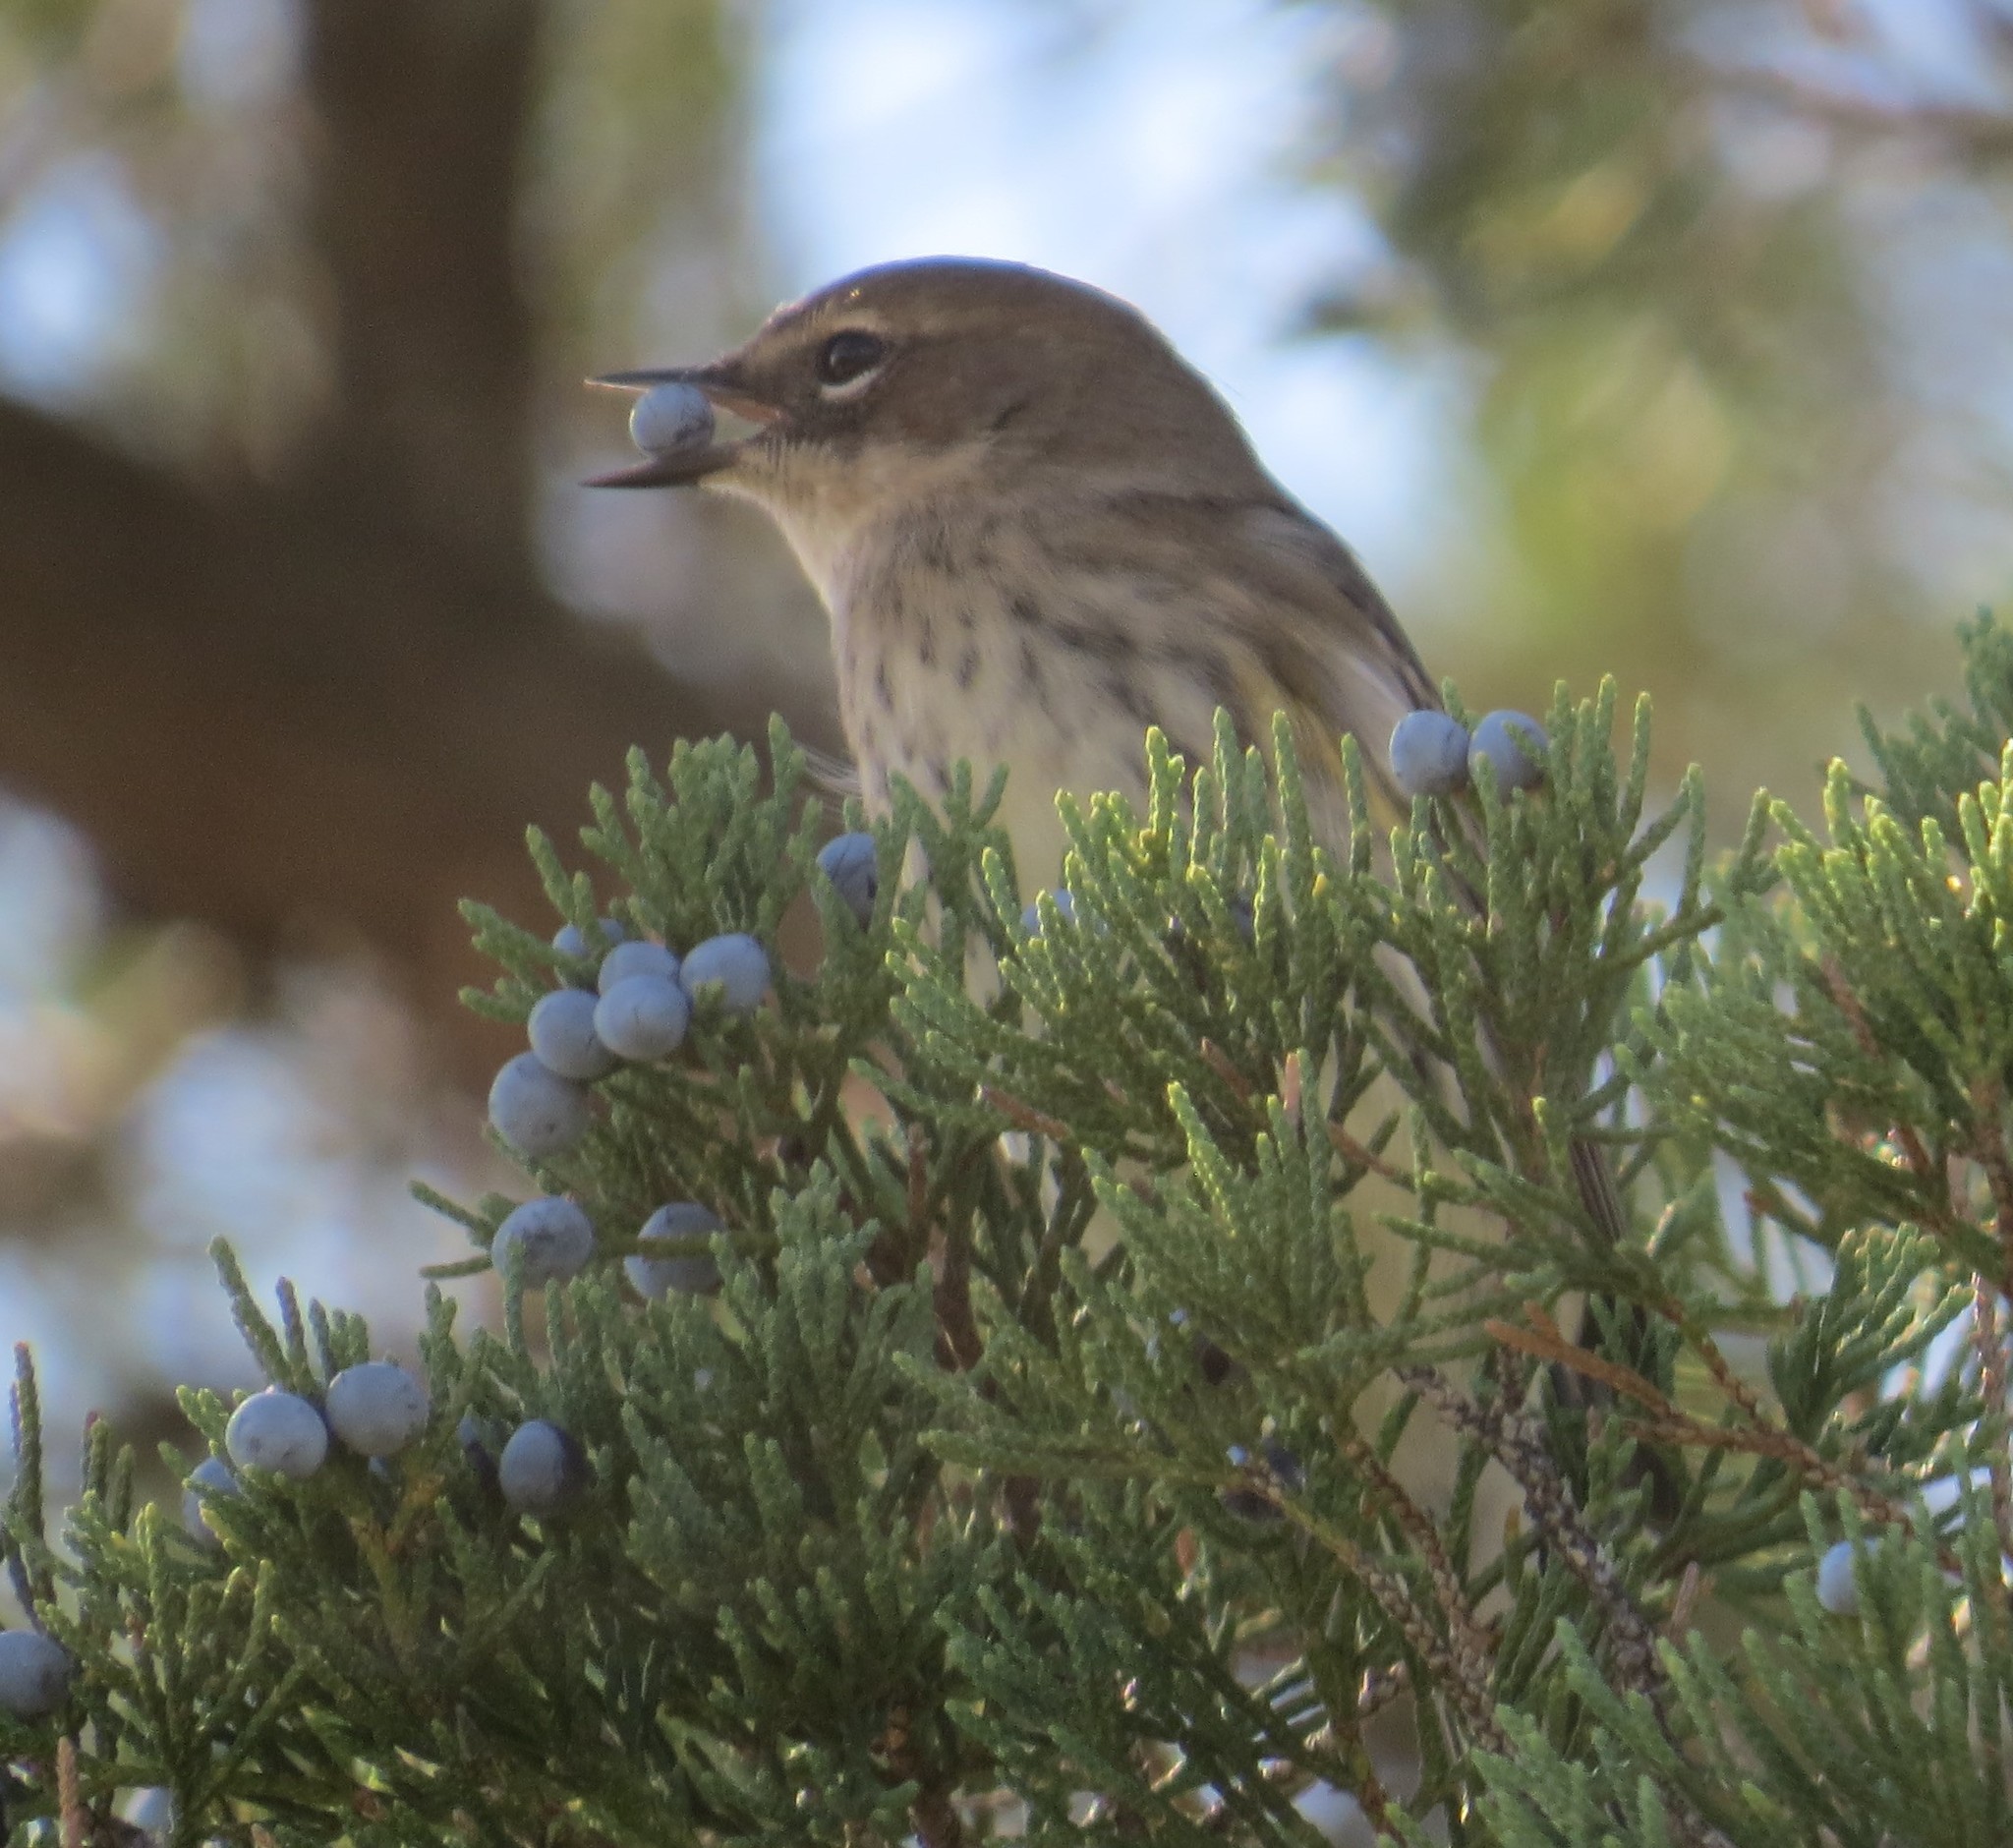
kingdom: Animalia
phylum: Chordata
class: Aves
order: Passeriformes
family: Parulidae
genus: Setophaga
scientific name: Setophaga coronata
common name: Myrtle warbler
